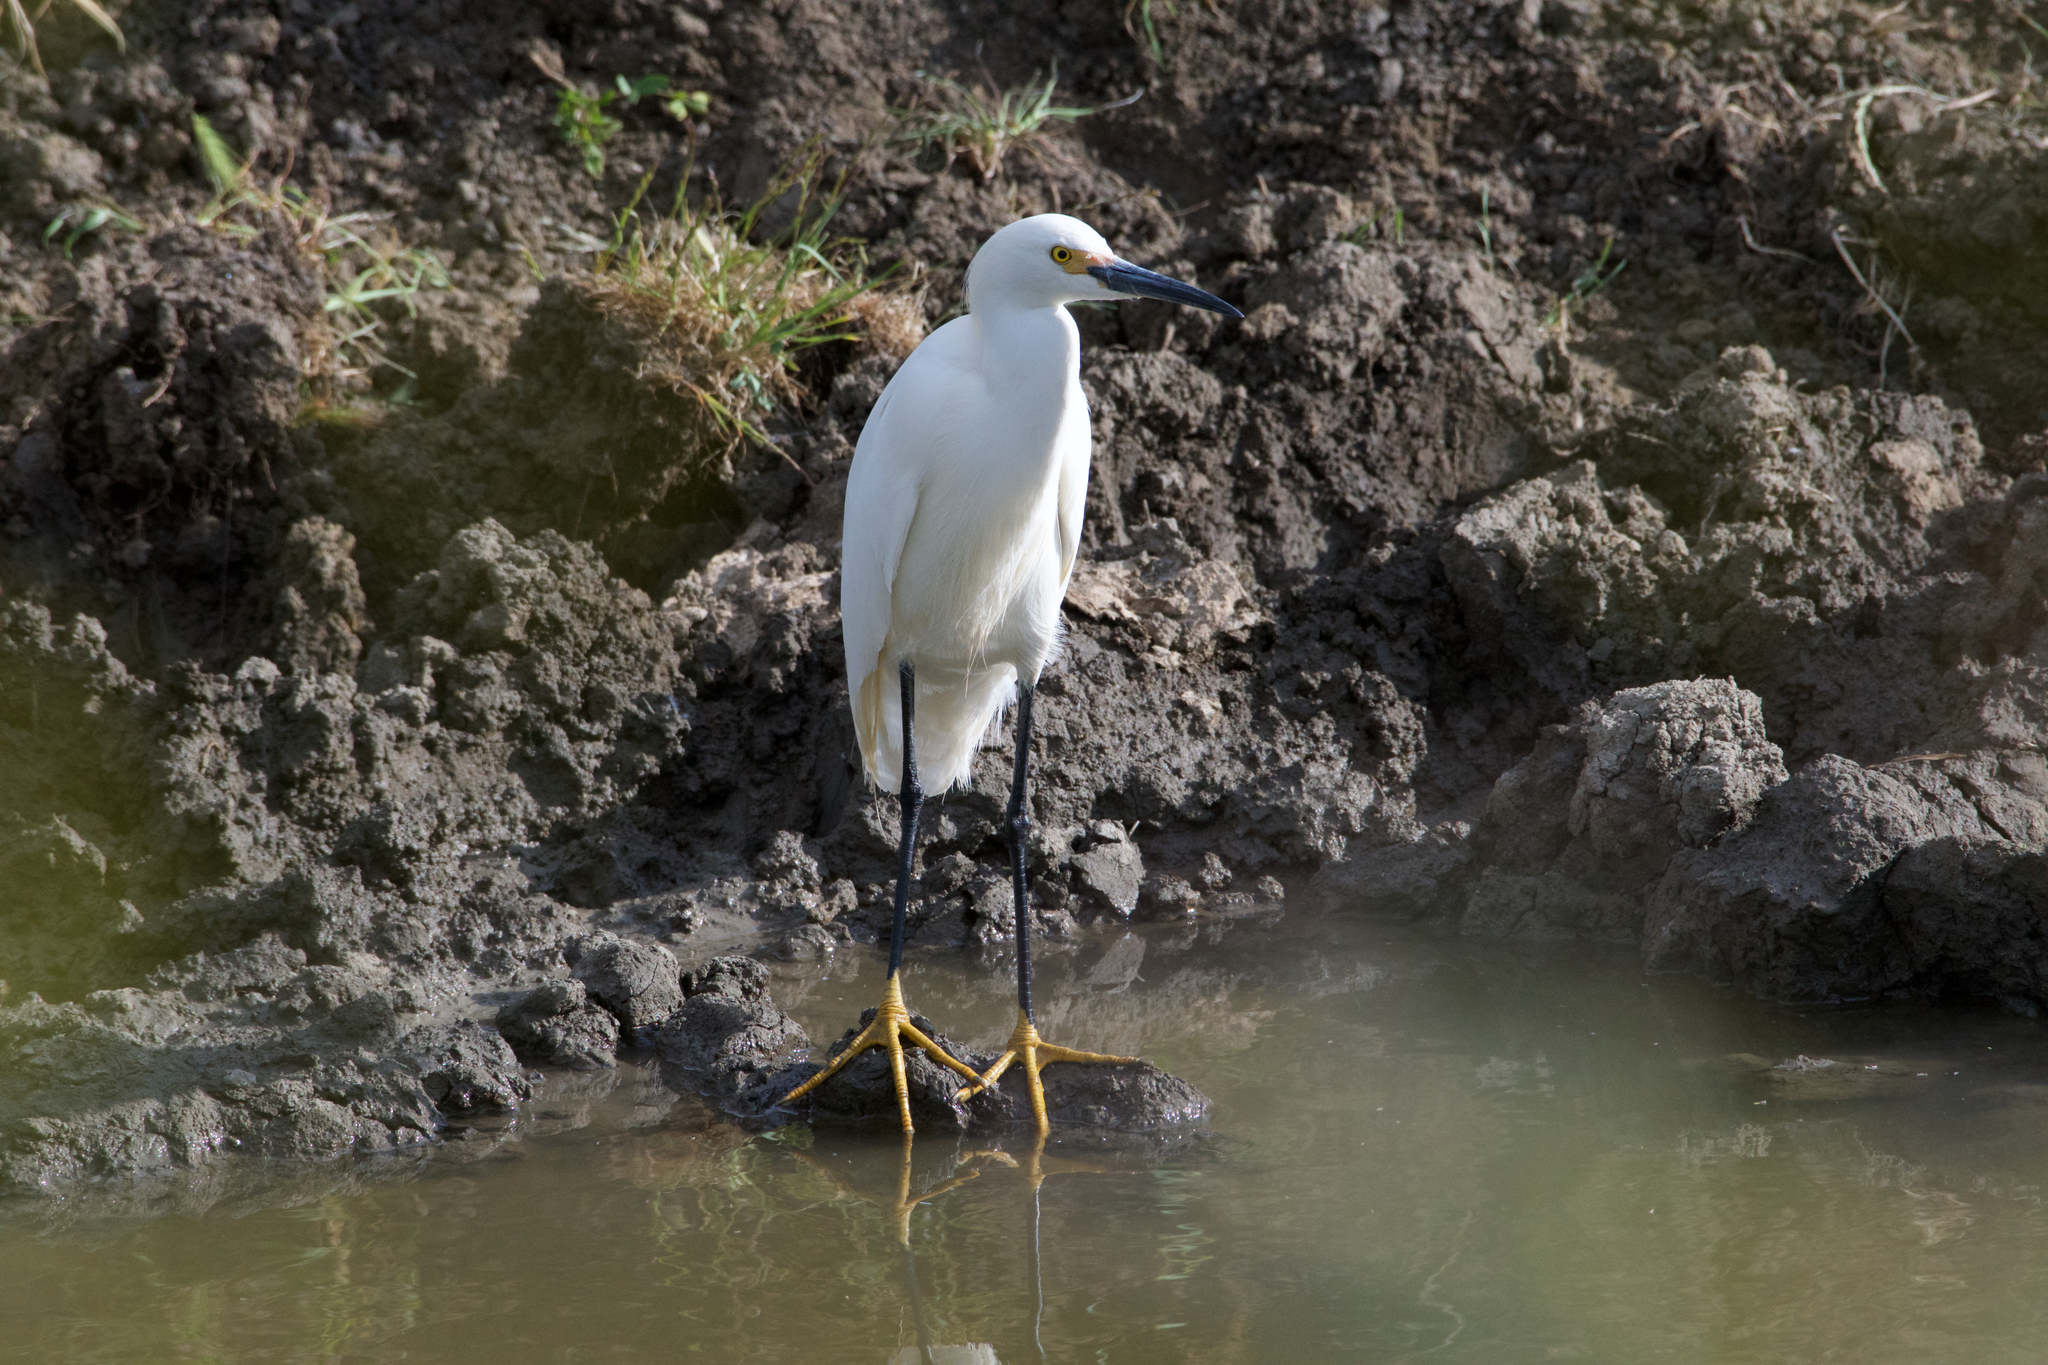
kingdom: Animalia
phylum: Chordata
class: Aves
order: Pelecaniformes
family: Ardeidae
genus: Egretta
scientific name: Egretta thula
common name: Snowy egret
